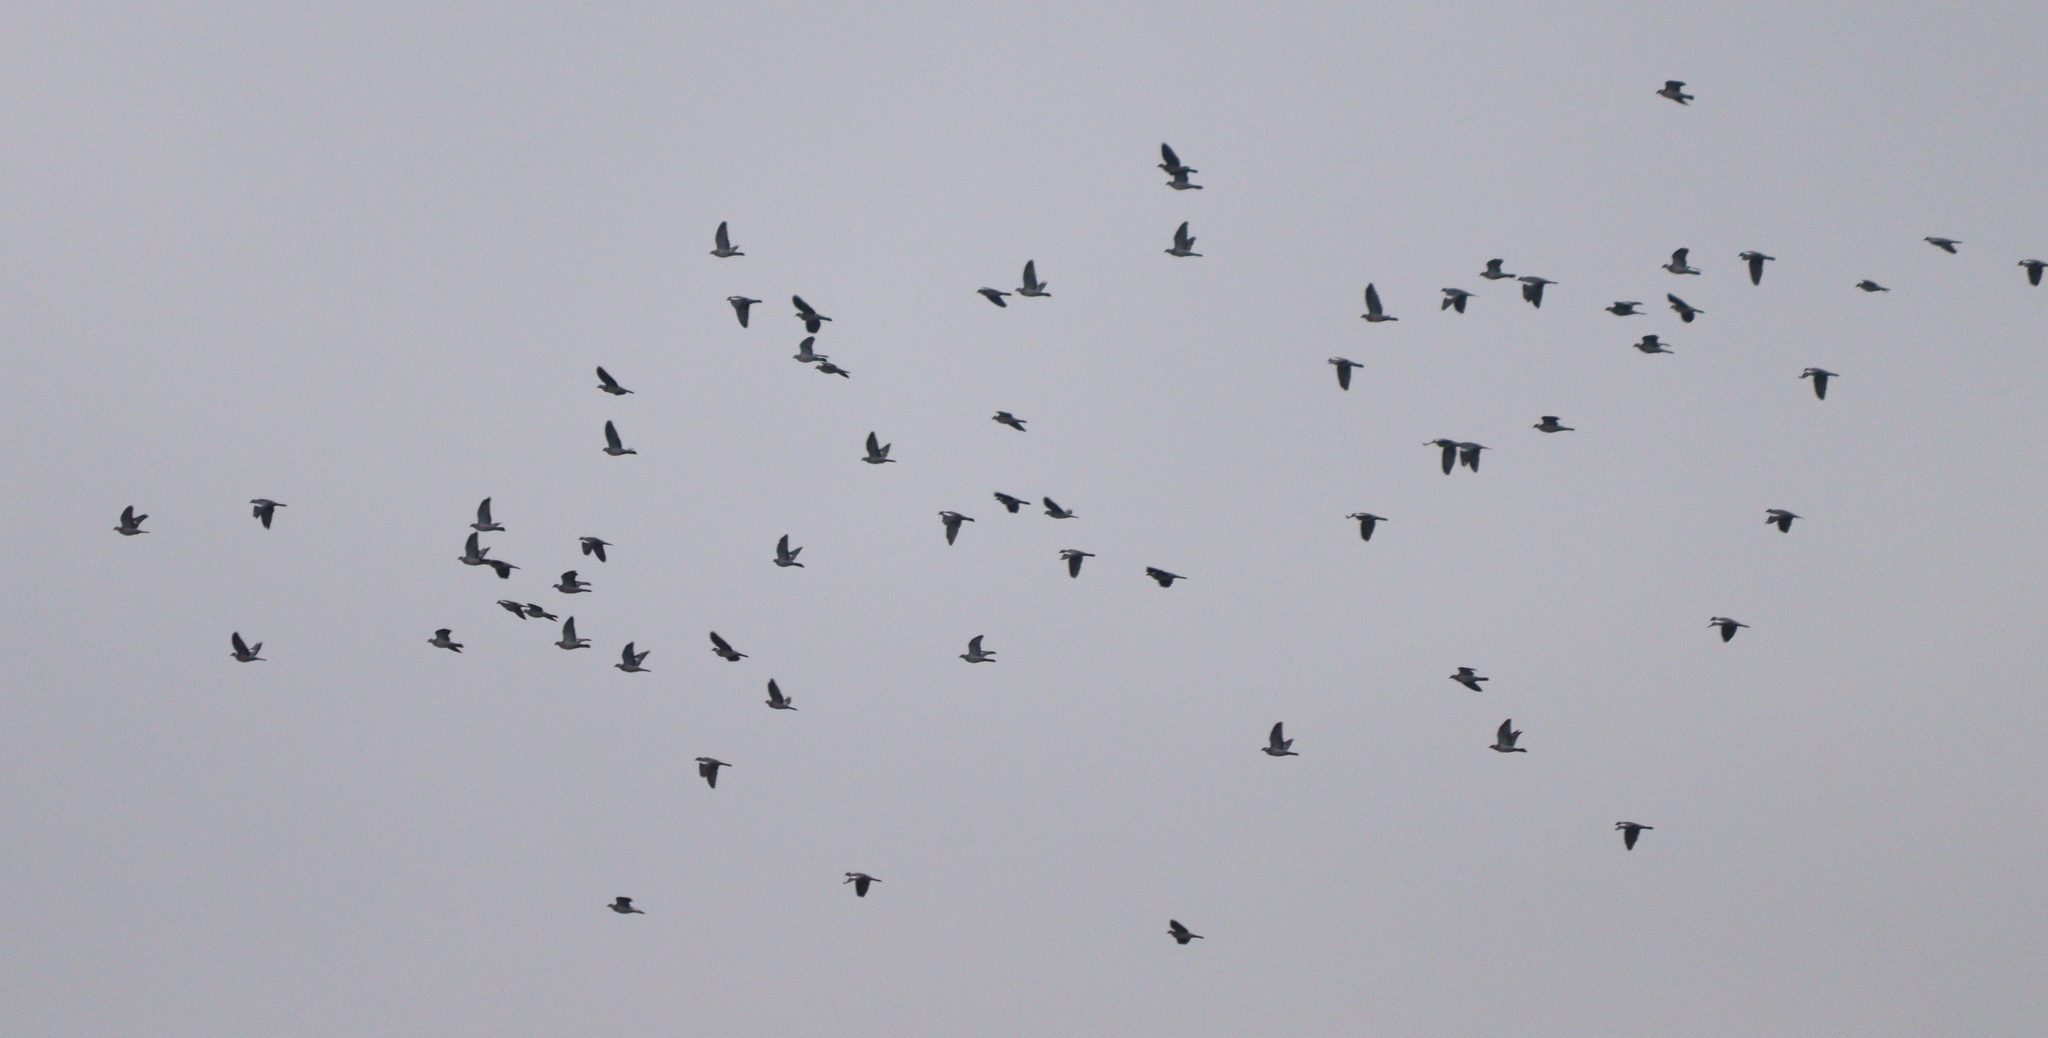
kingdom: Animalia
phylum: Chordata
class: Aves
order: Columbiformes
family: Columbidae
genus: Columba
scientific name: Columba palumbus
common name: Common wood pigeon
